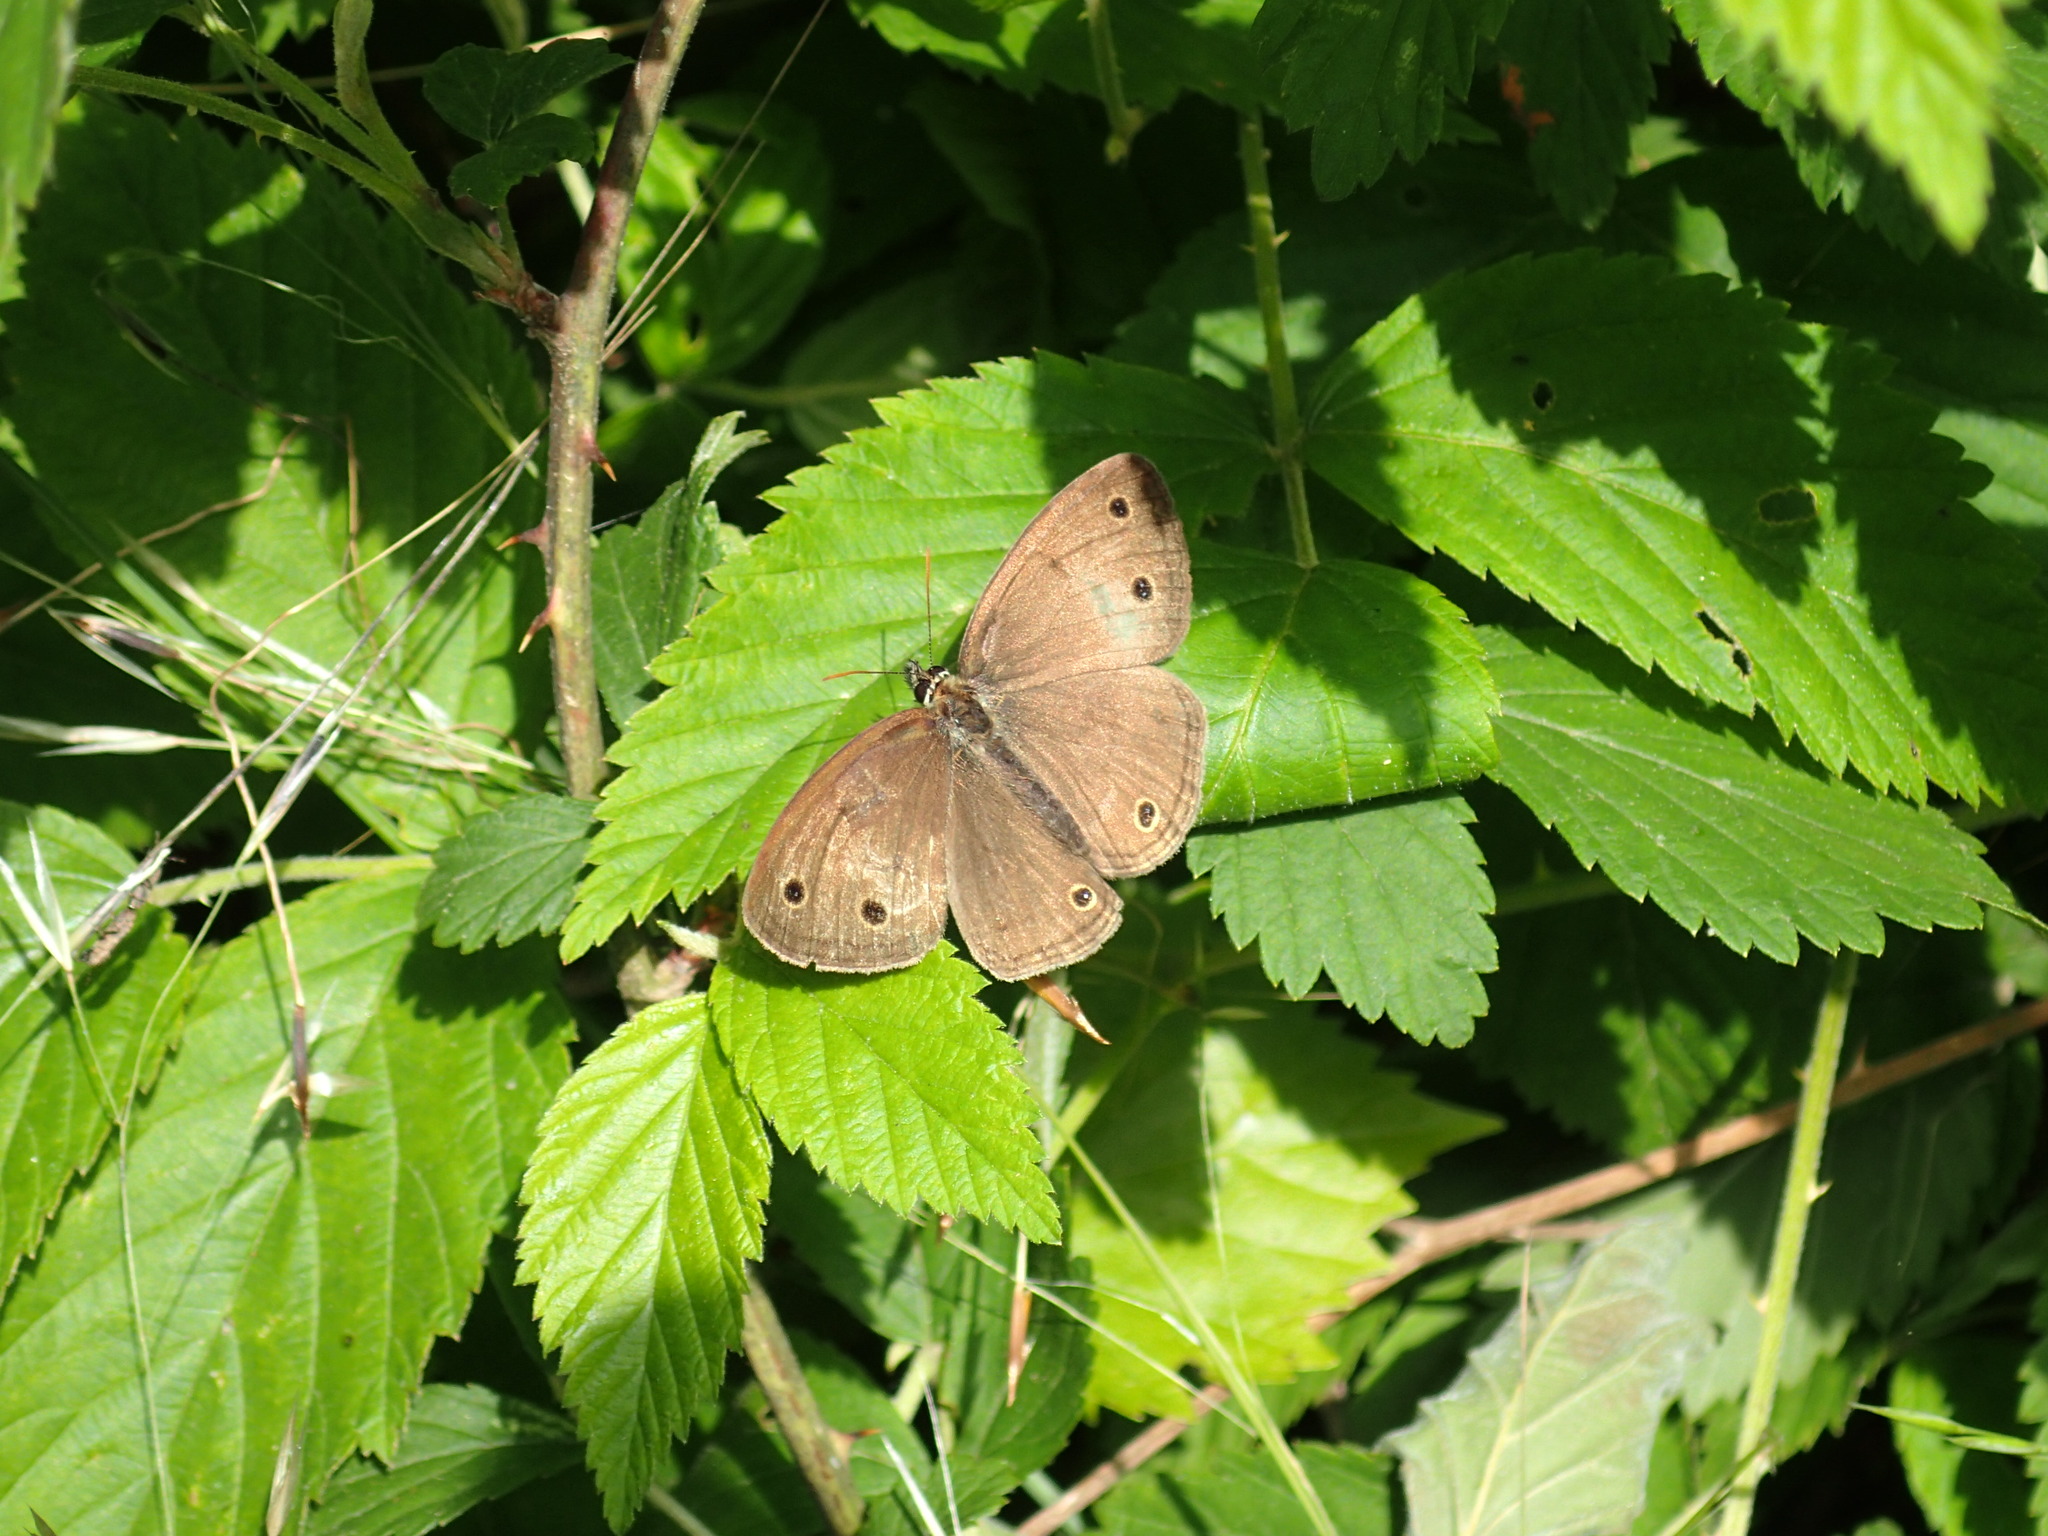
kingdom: Animalia
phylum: Arthropoda
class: Insecta
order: Lepidoptera
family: Nymphalidae
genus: Euptychia
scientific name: Euptychia cymela
